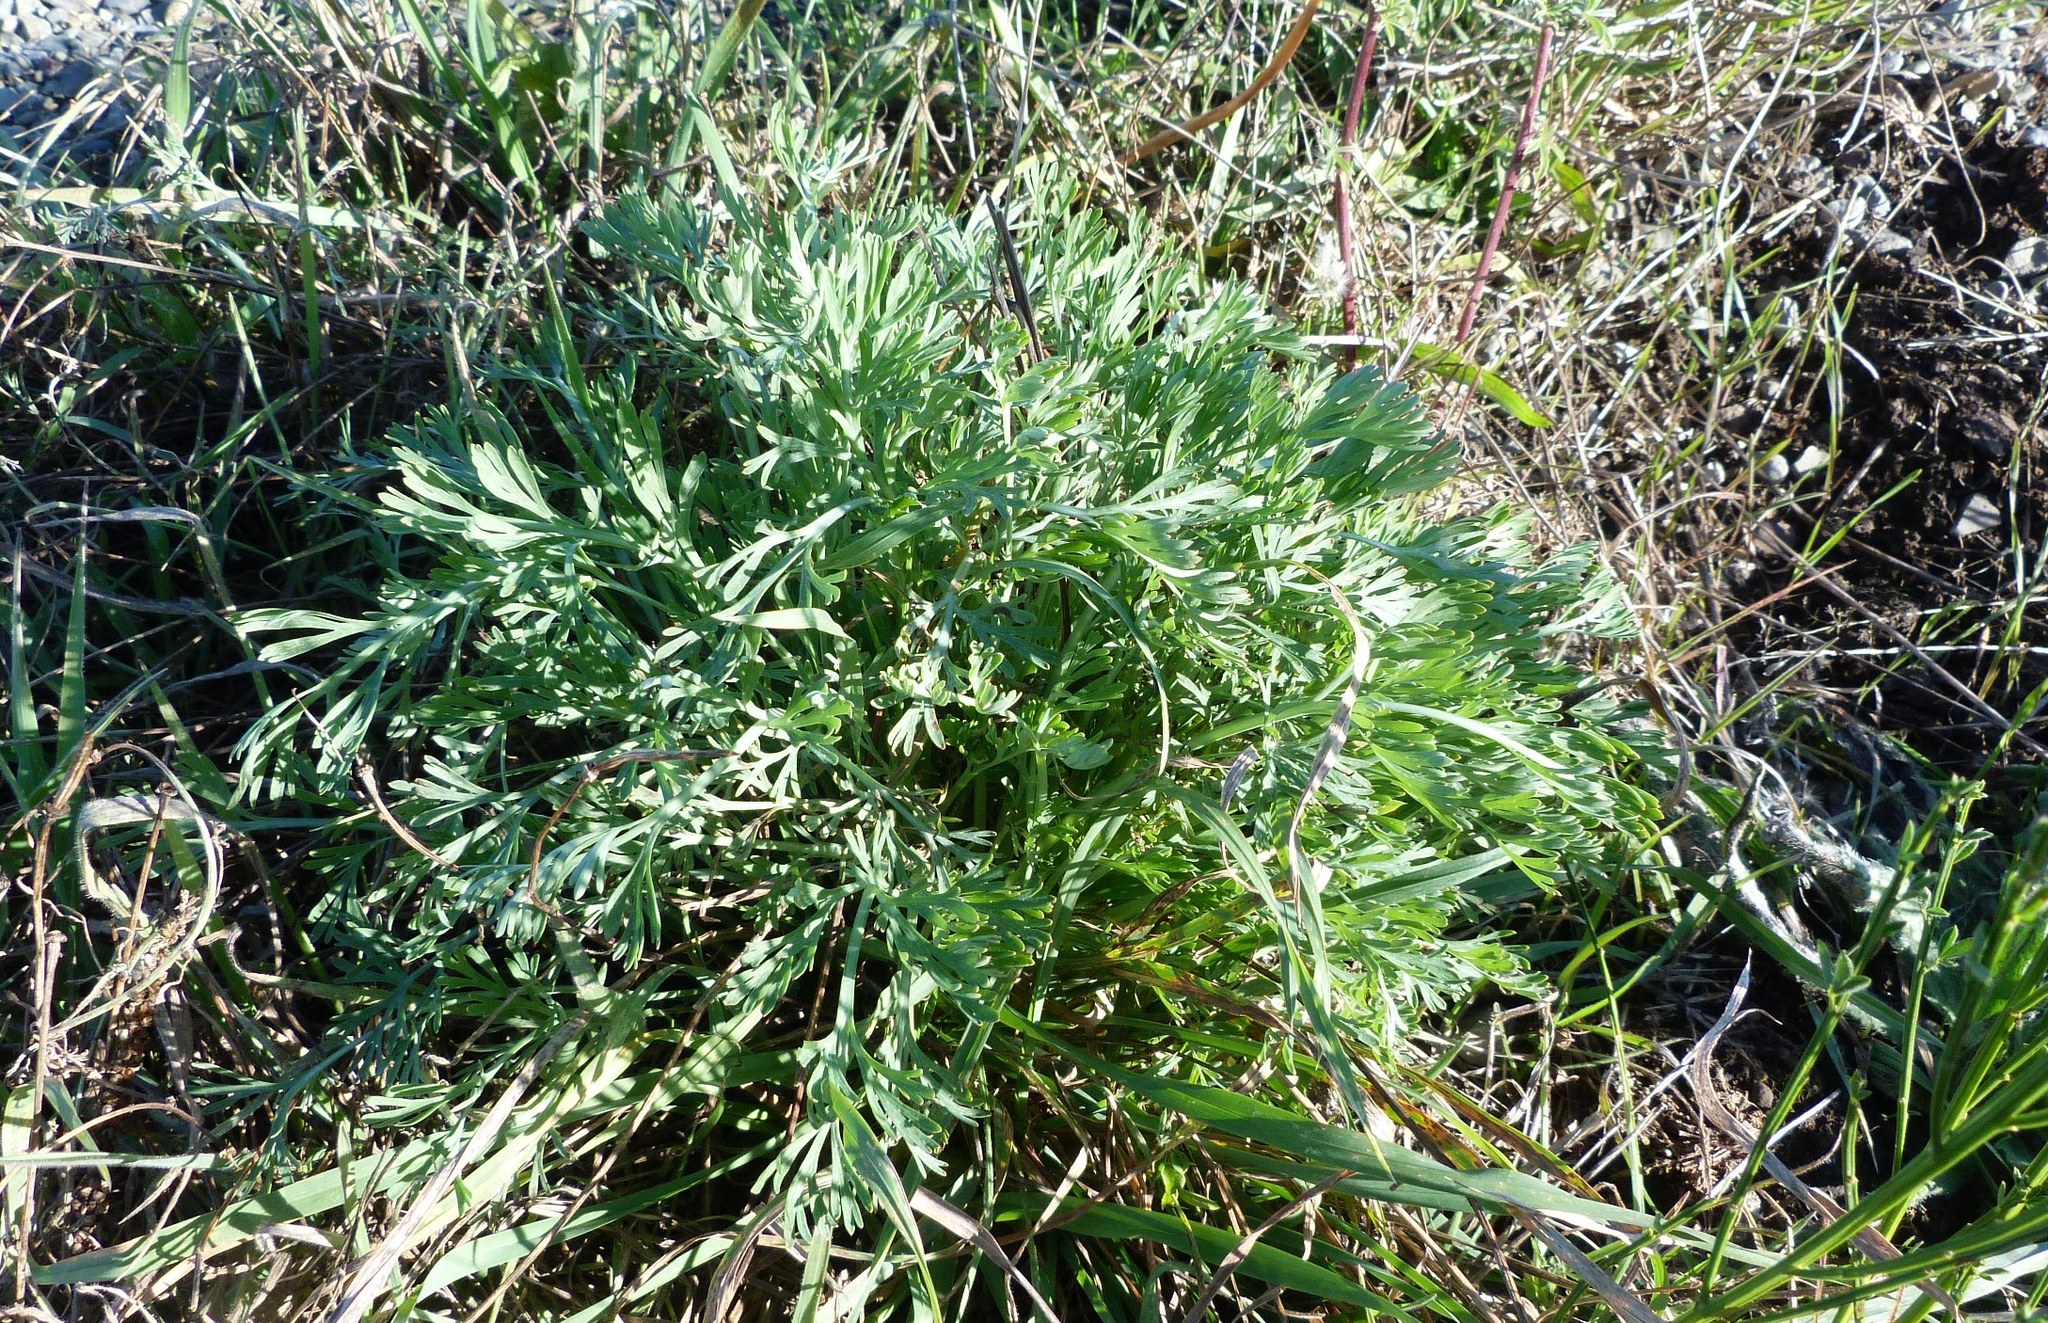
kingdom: Plantae
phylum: Tracheophyta
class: Magnoliopsida
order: Ranunculales
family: Papaveraceae
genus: Eschscholzia
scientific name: Eschscholzia californica
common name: California poppy
